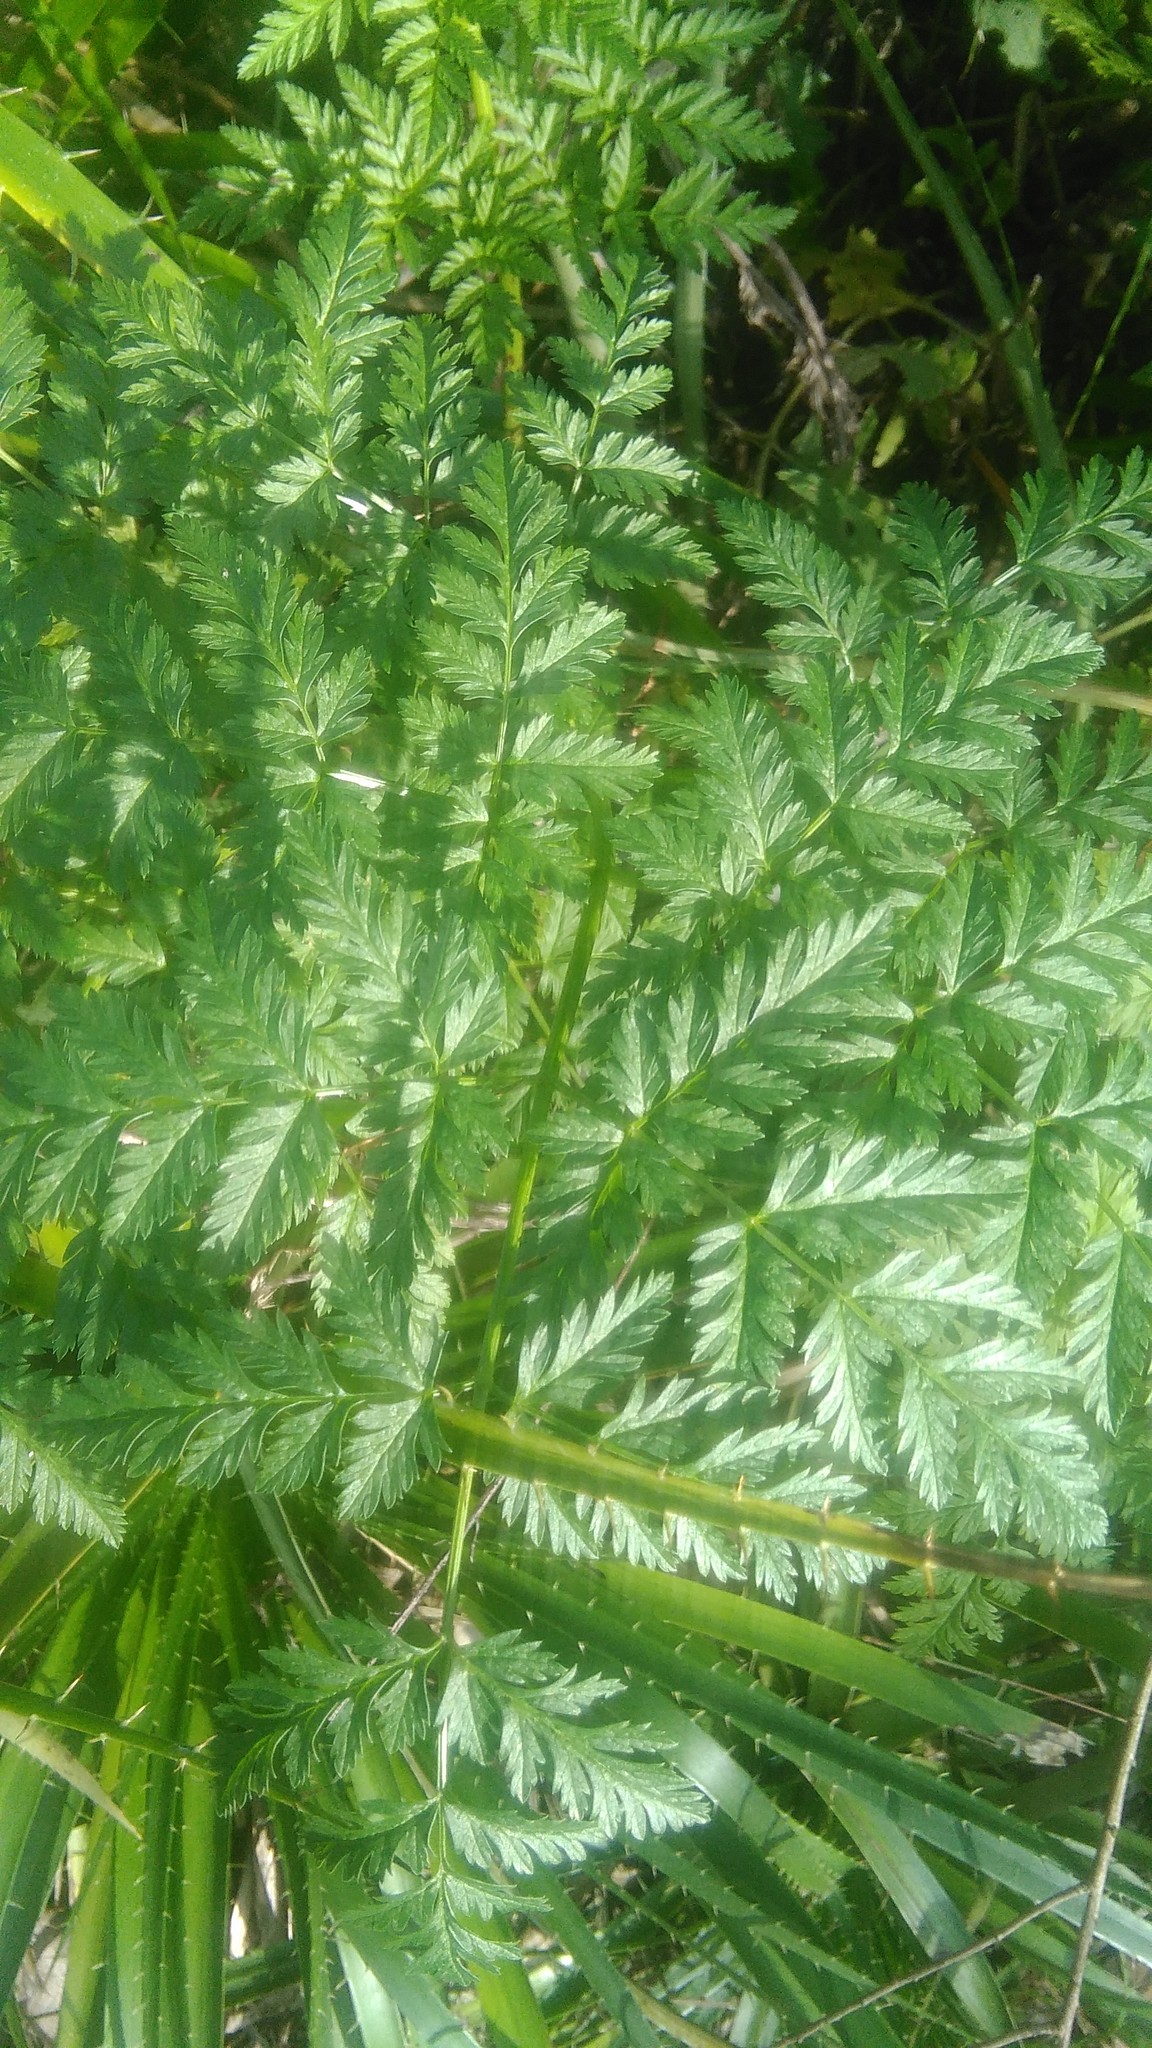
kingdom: Plantae
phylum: Tracheophyta
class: Magnoliopsida
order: Apiales
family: Apiaceae
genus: Conium
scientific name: Conium maculatum
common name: Hemlock
